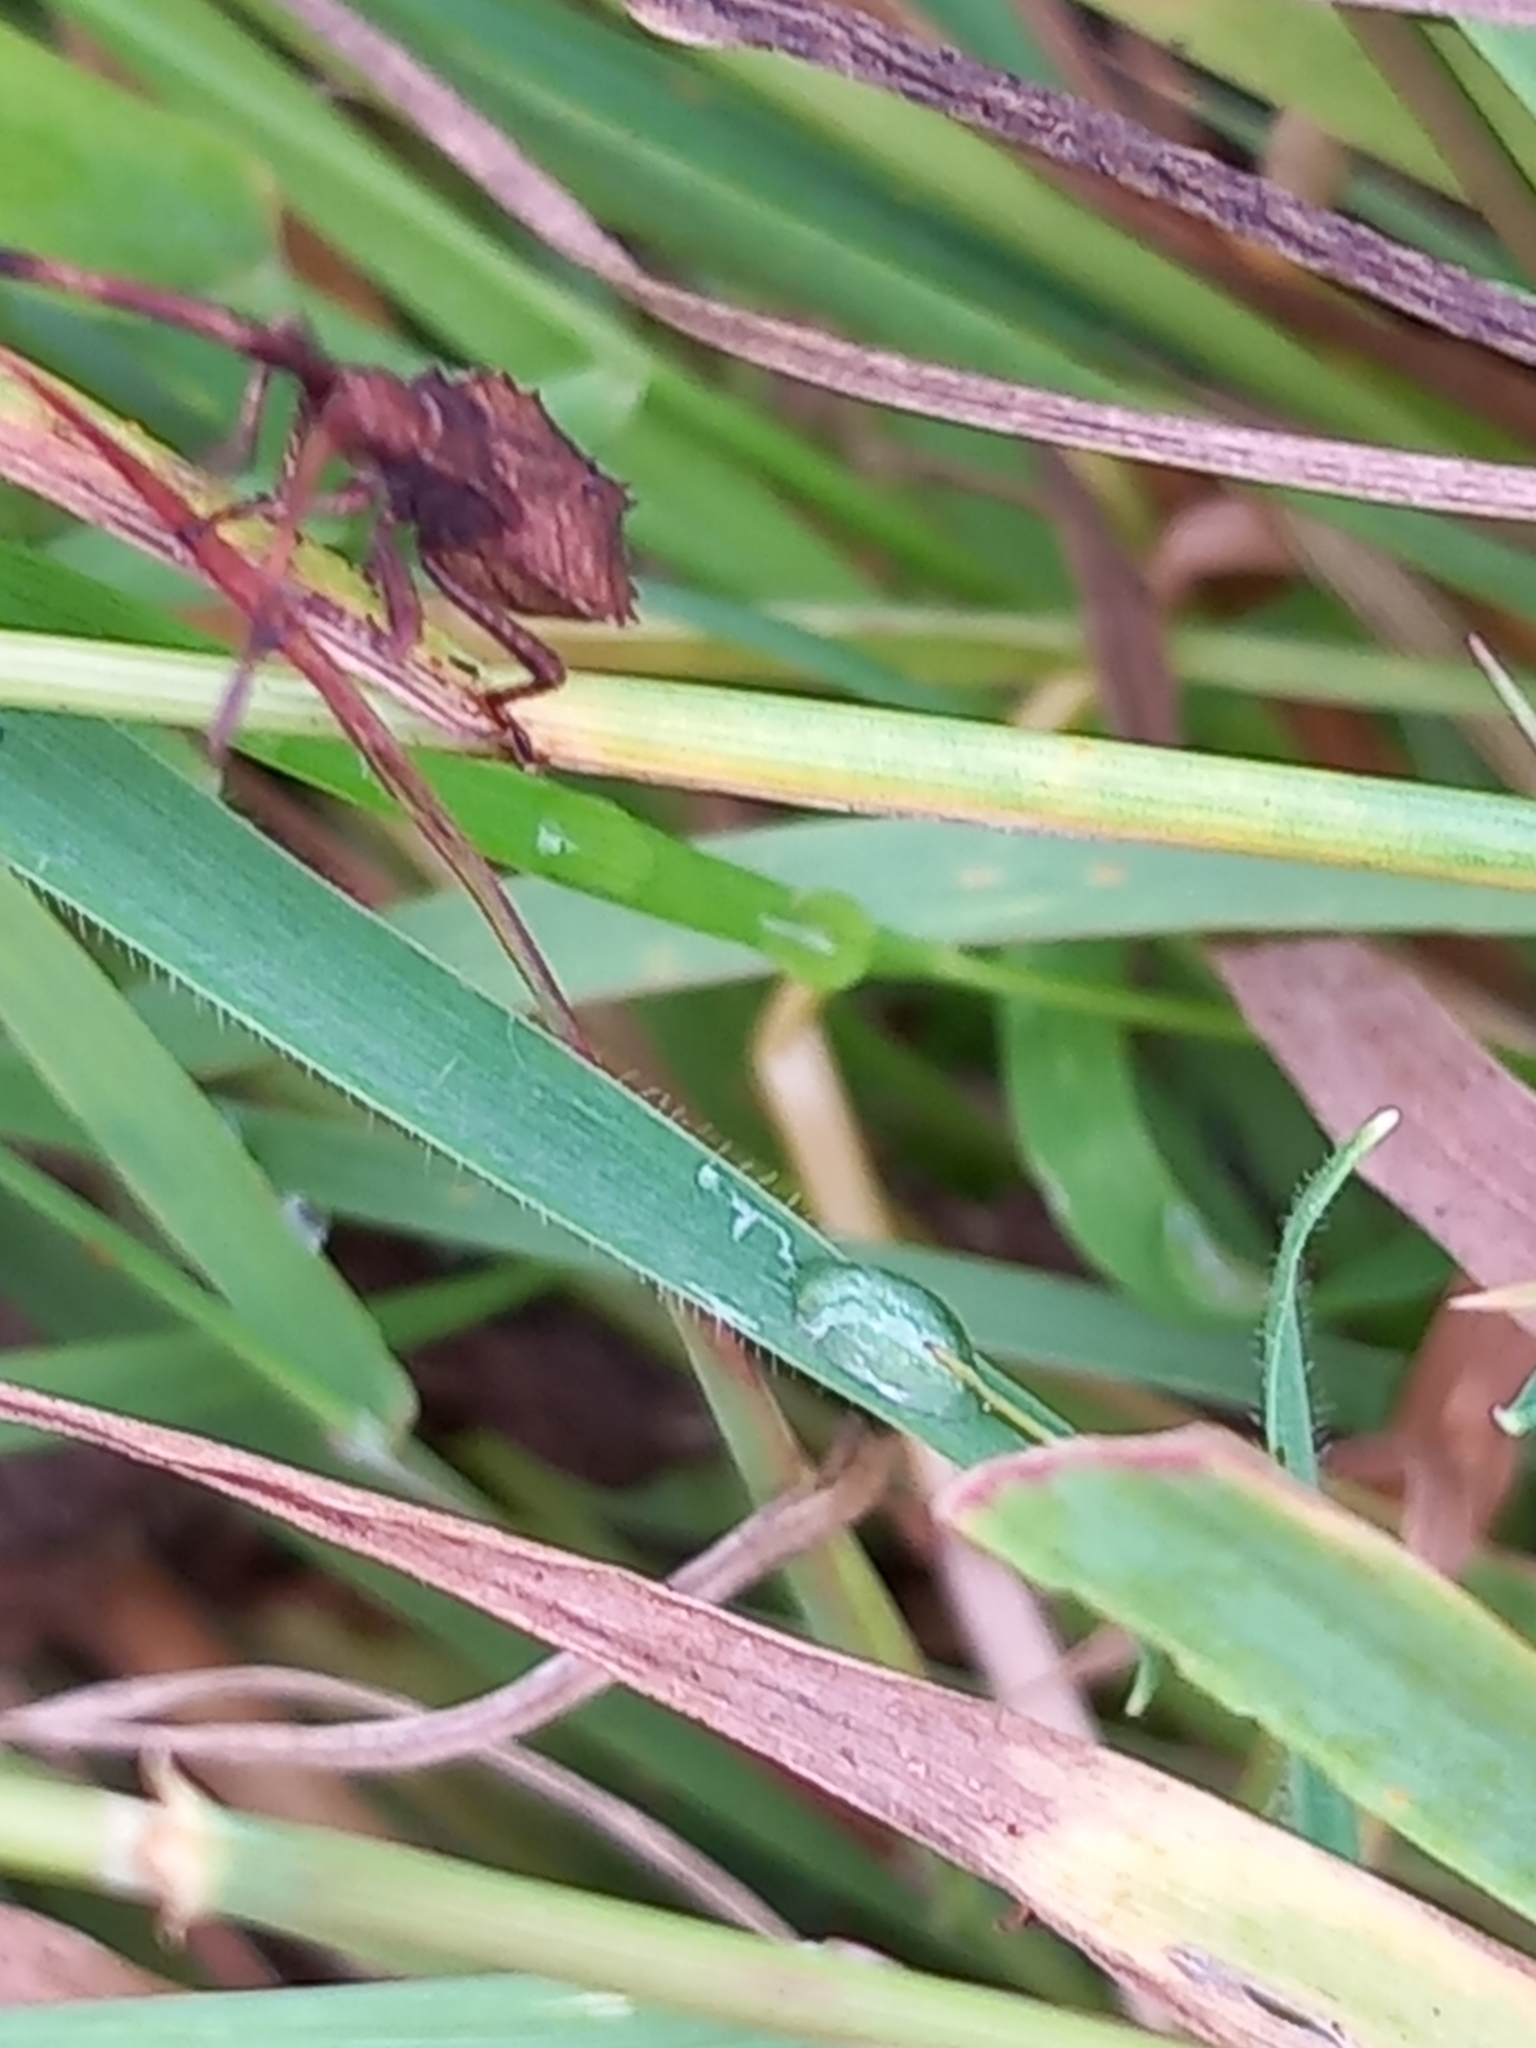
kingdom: Animalia
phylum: Arthropoda
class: Insecta
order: Hemiptera
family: Coreidae
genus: Coreus
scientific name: Coreus marginatus
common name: Dock bug
